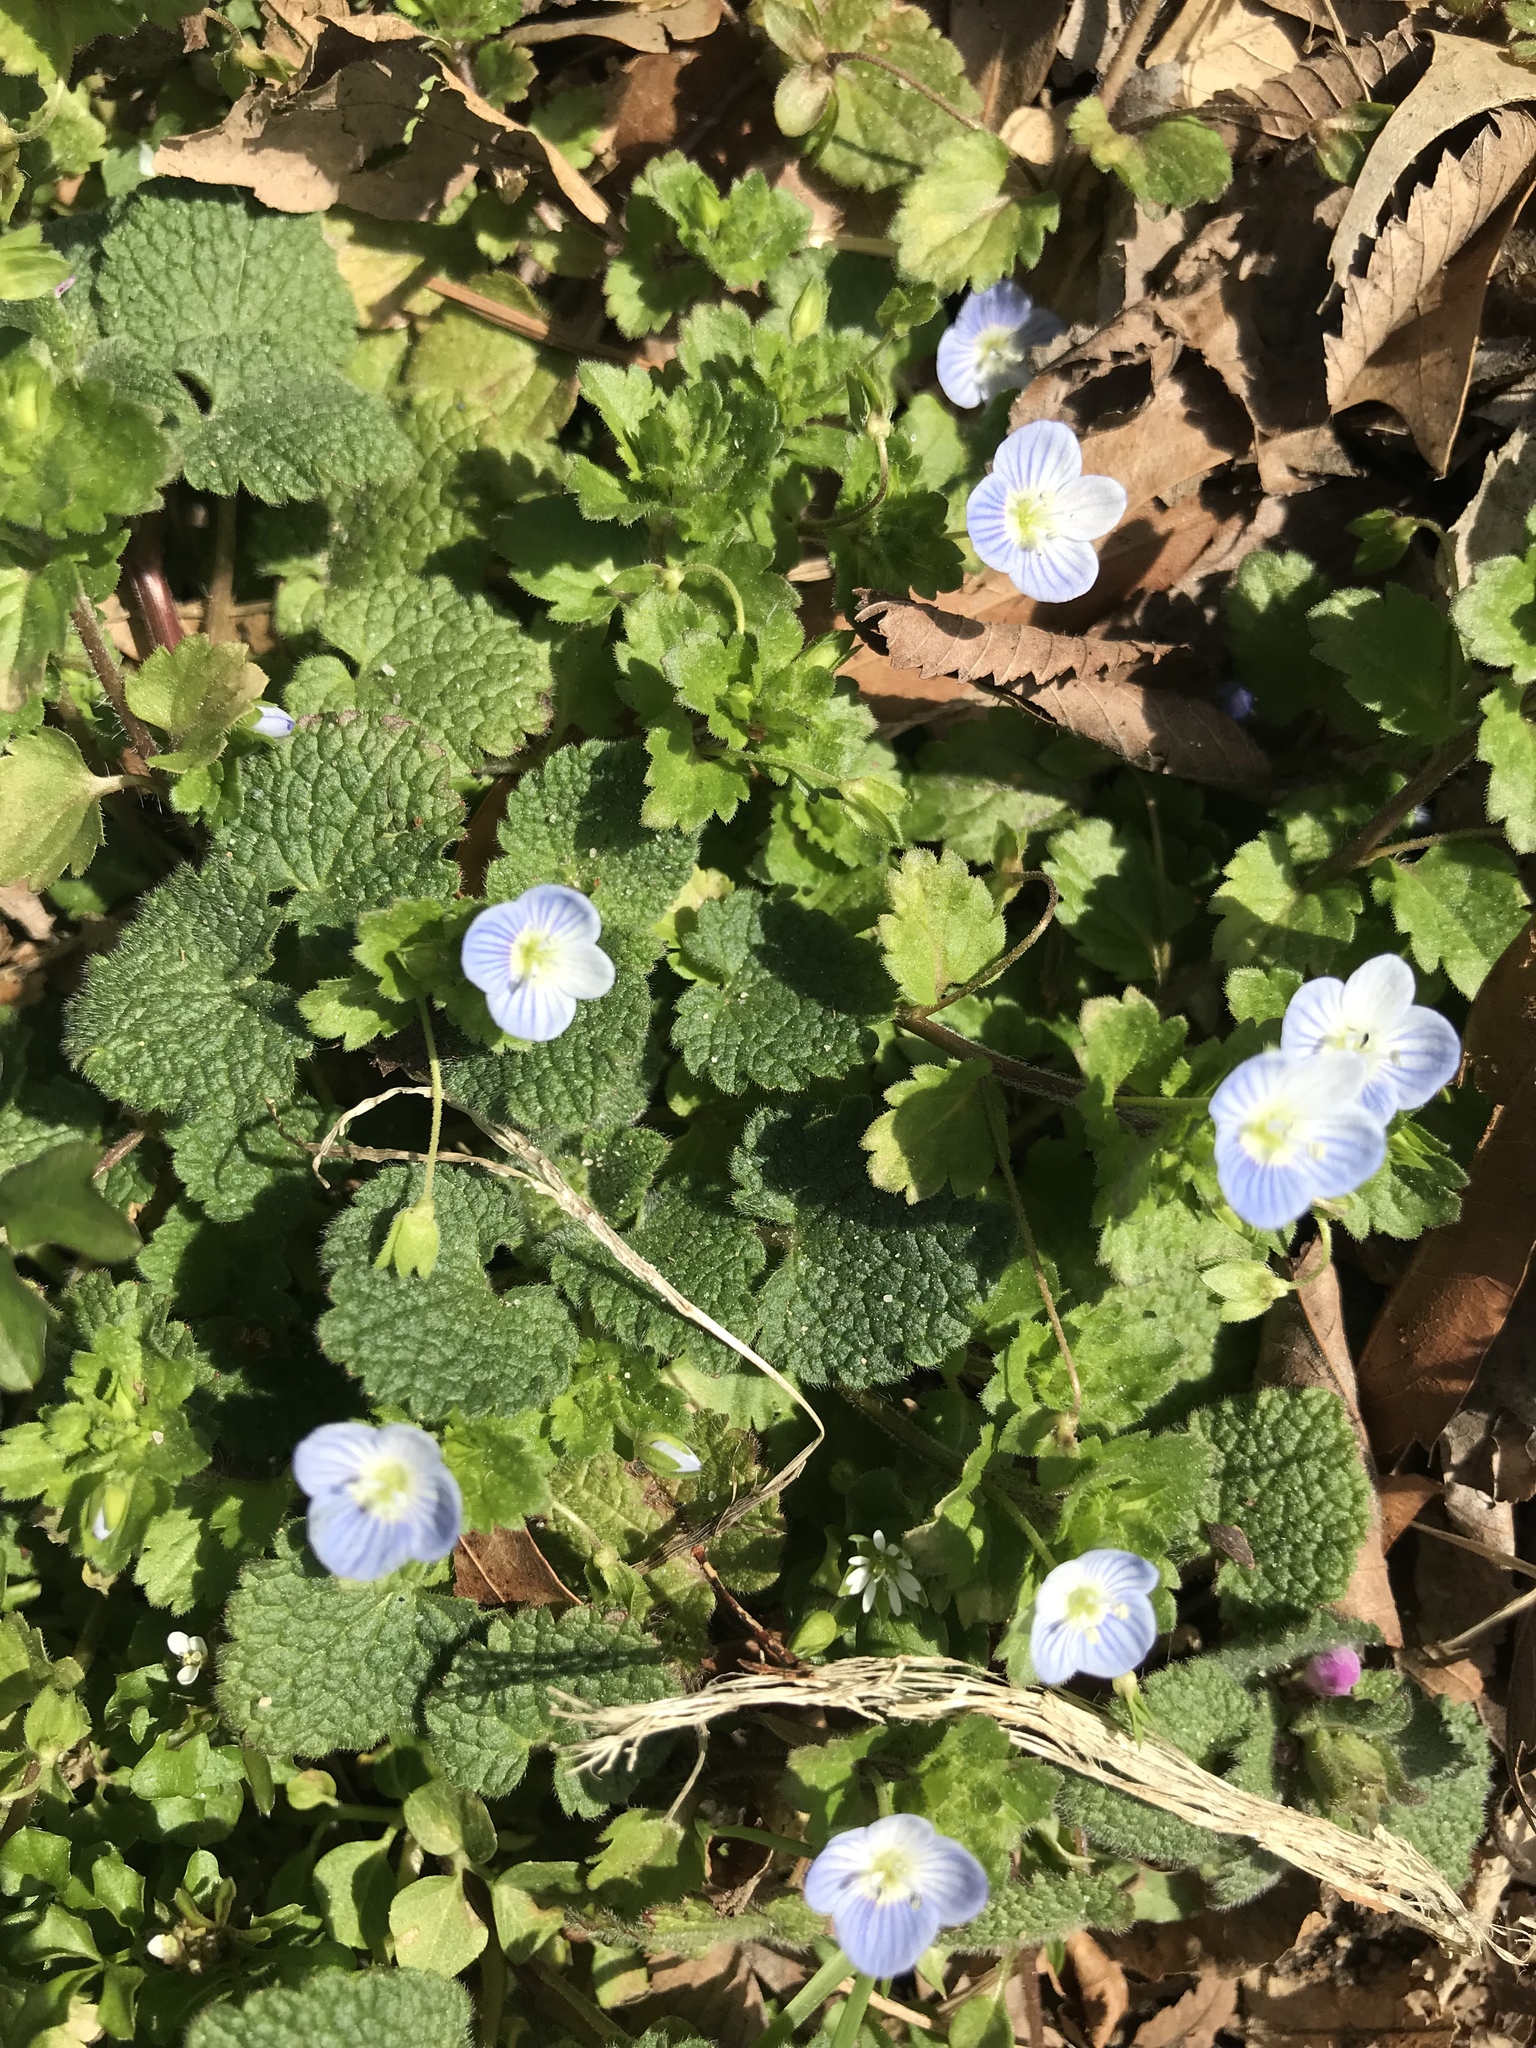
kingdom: Plantae
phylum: Tracheophyta
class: Magnoliopsida
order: Lamiales
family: Plantaginaceae
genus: Veronica
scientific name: Veronica persica
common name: Common field-speedwell
